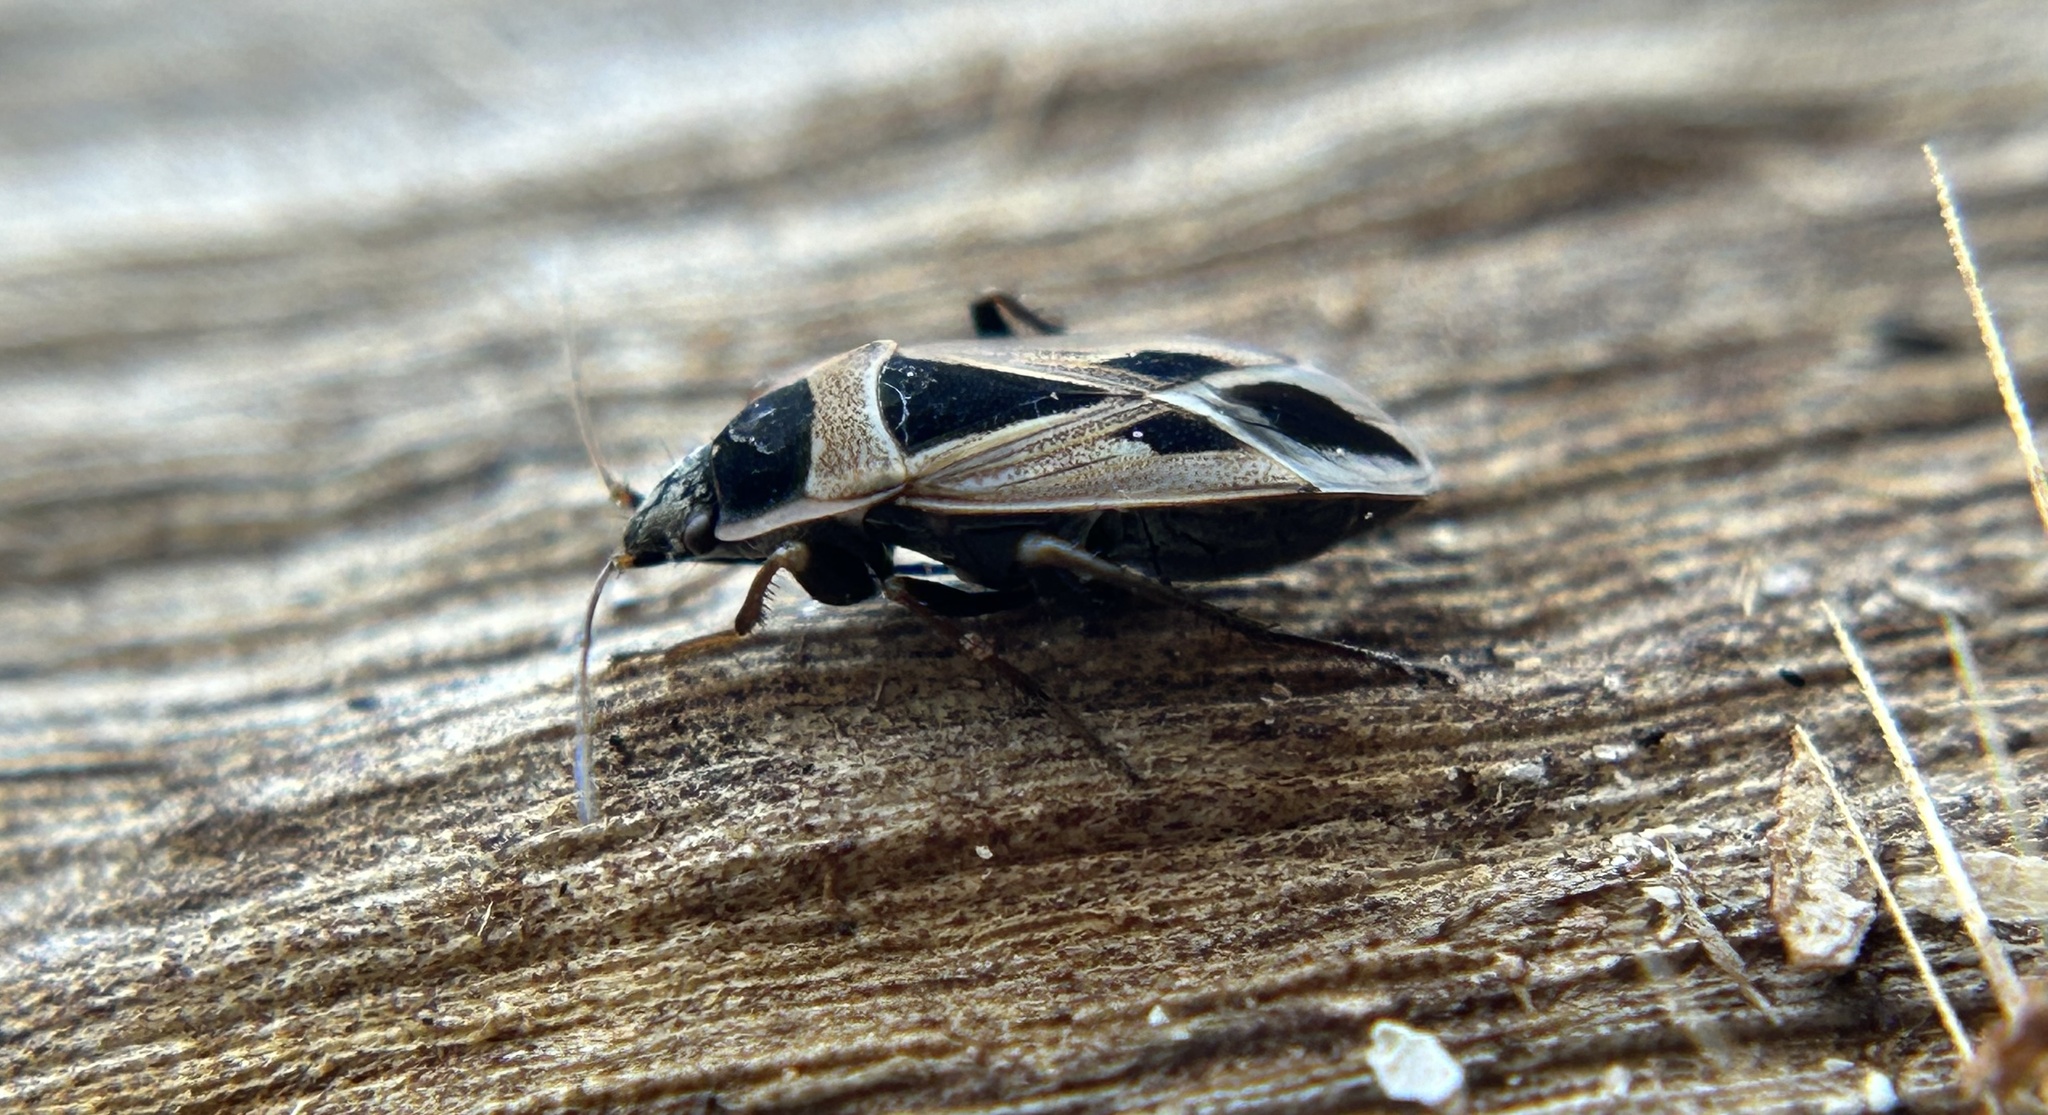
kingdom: Animalia
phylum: Arthropoda
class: Insecta
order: Hemiptera
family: Rhyparochromidae
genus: Xanthochilus
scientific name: Xanthochilus saturnius
